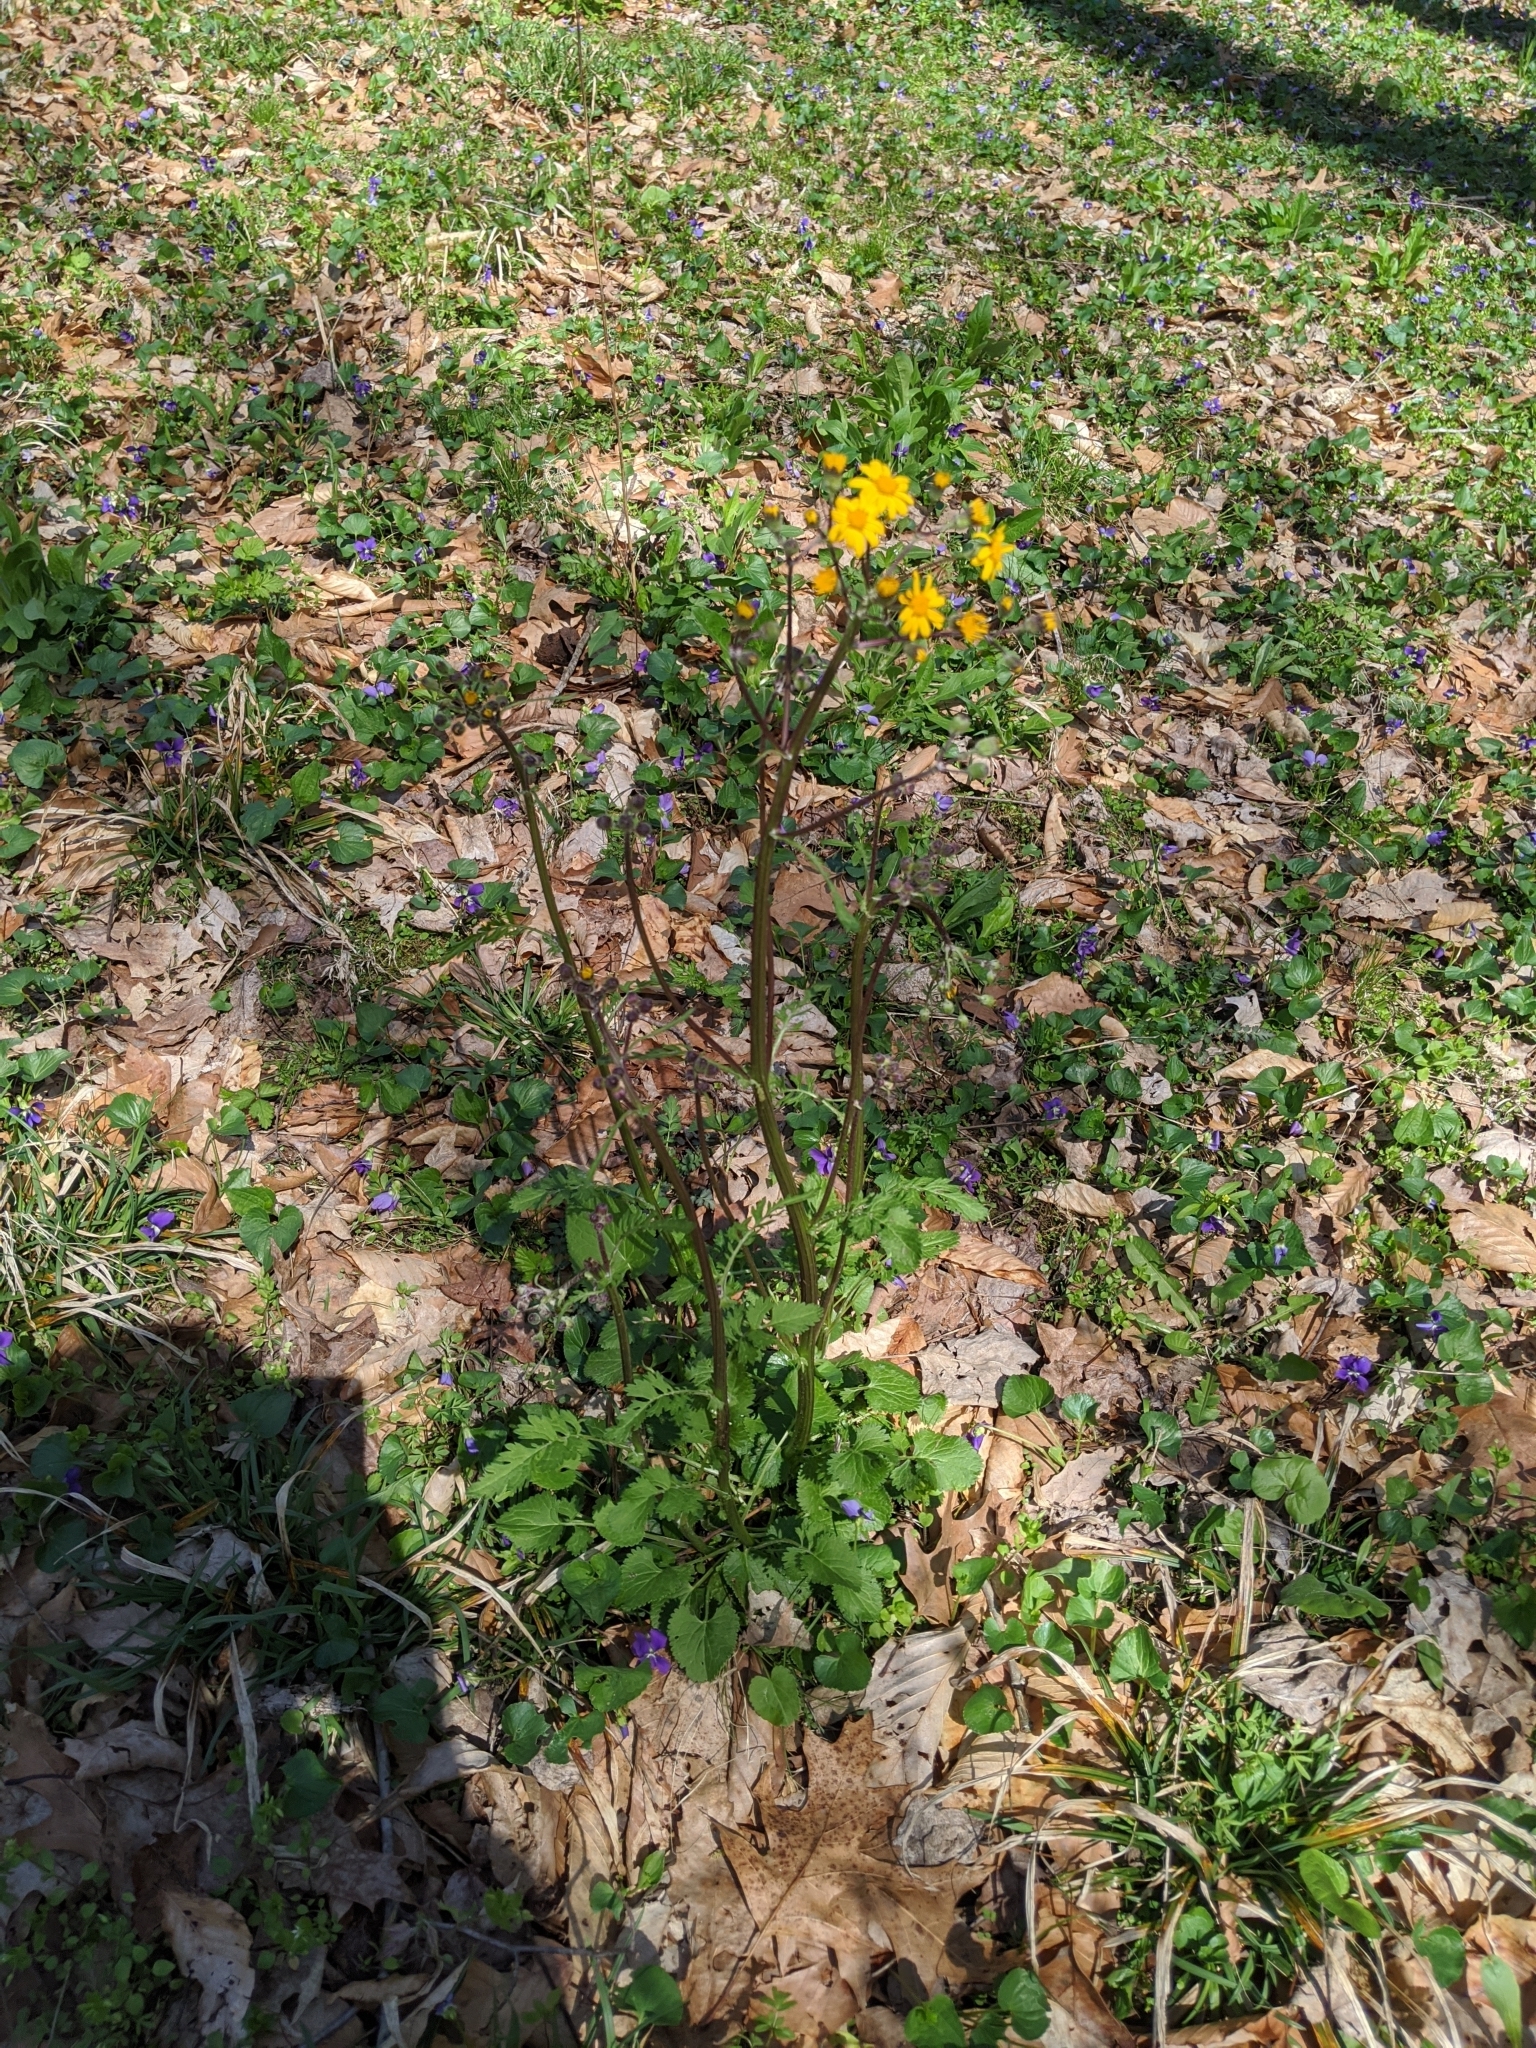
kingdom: Plantae
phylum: Tracheophyta
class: Magnoliopsida
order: Asterales
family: Asteraceae
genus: Packera
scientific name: Packera aurea
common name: Golden groundsel
